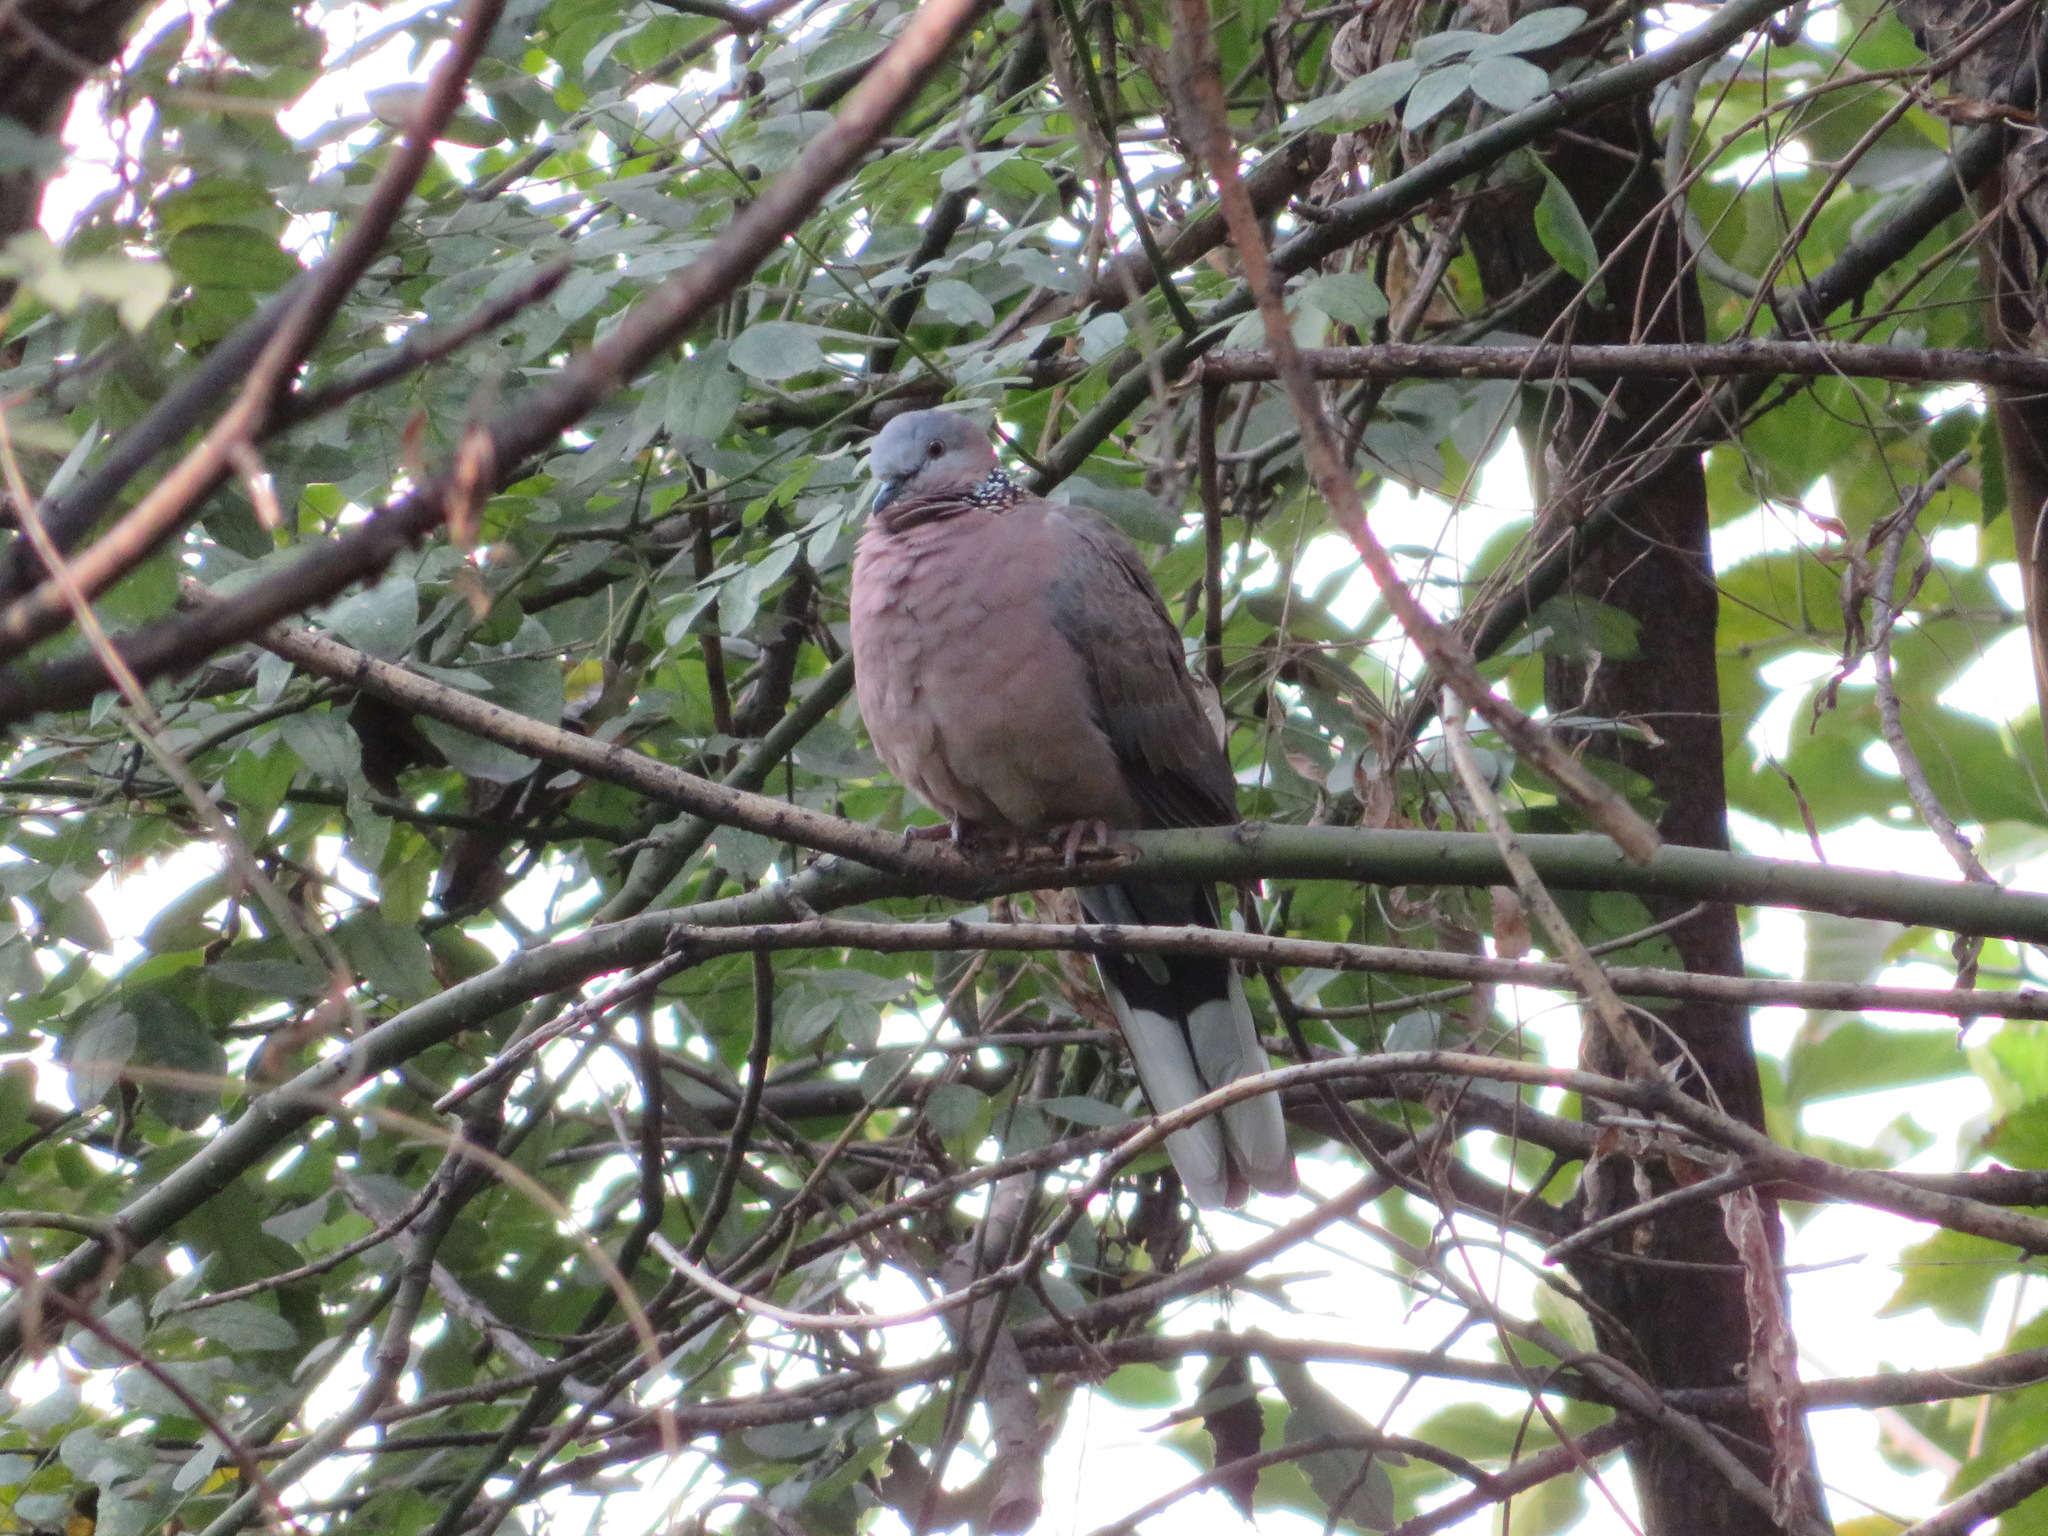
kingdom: Animalia
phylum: Chordata
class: Aves
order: Columbiformes
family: Columbidae
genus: Spilopelia
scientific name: Spilopelia chinensis
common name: Spotted dove
